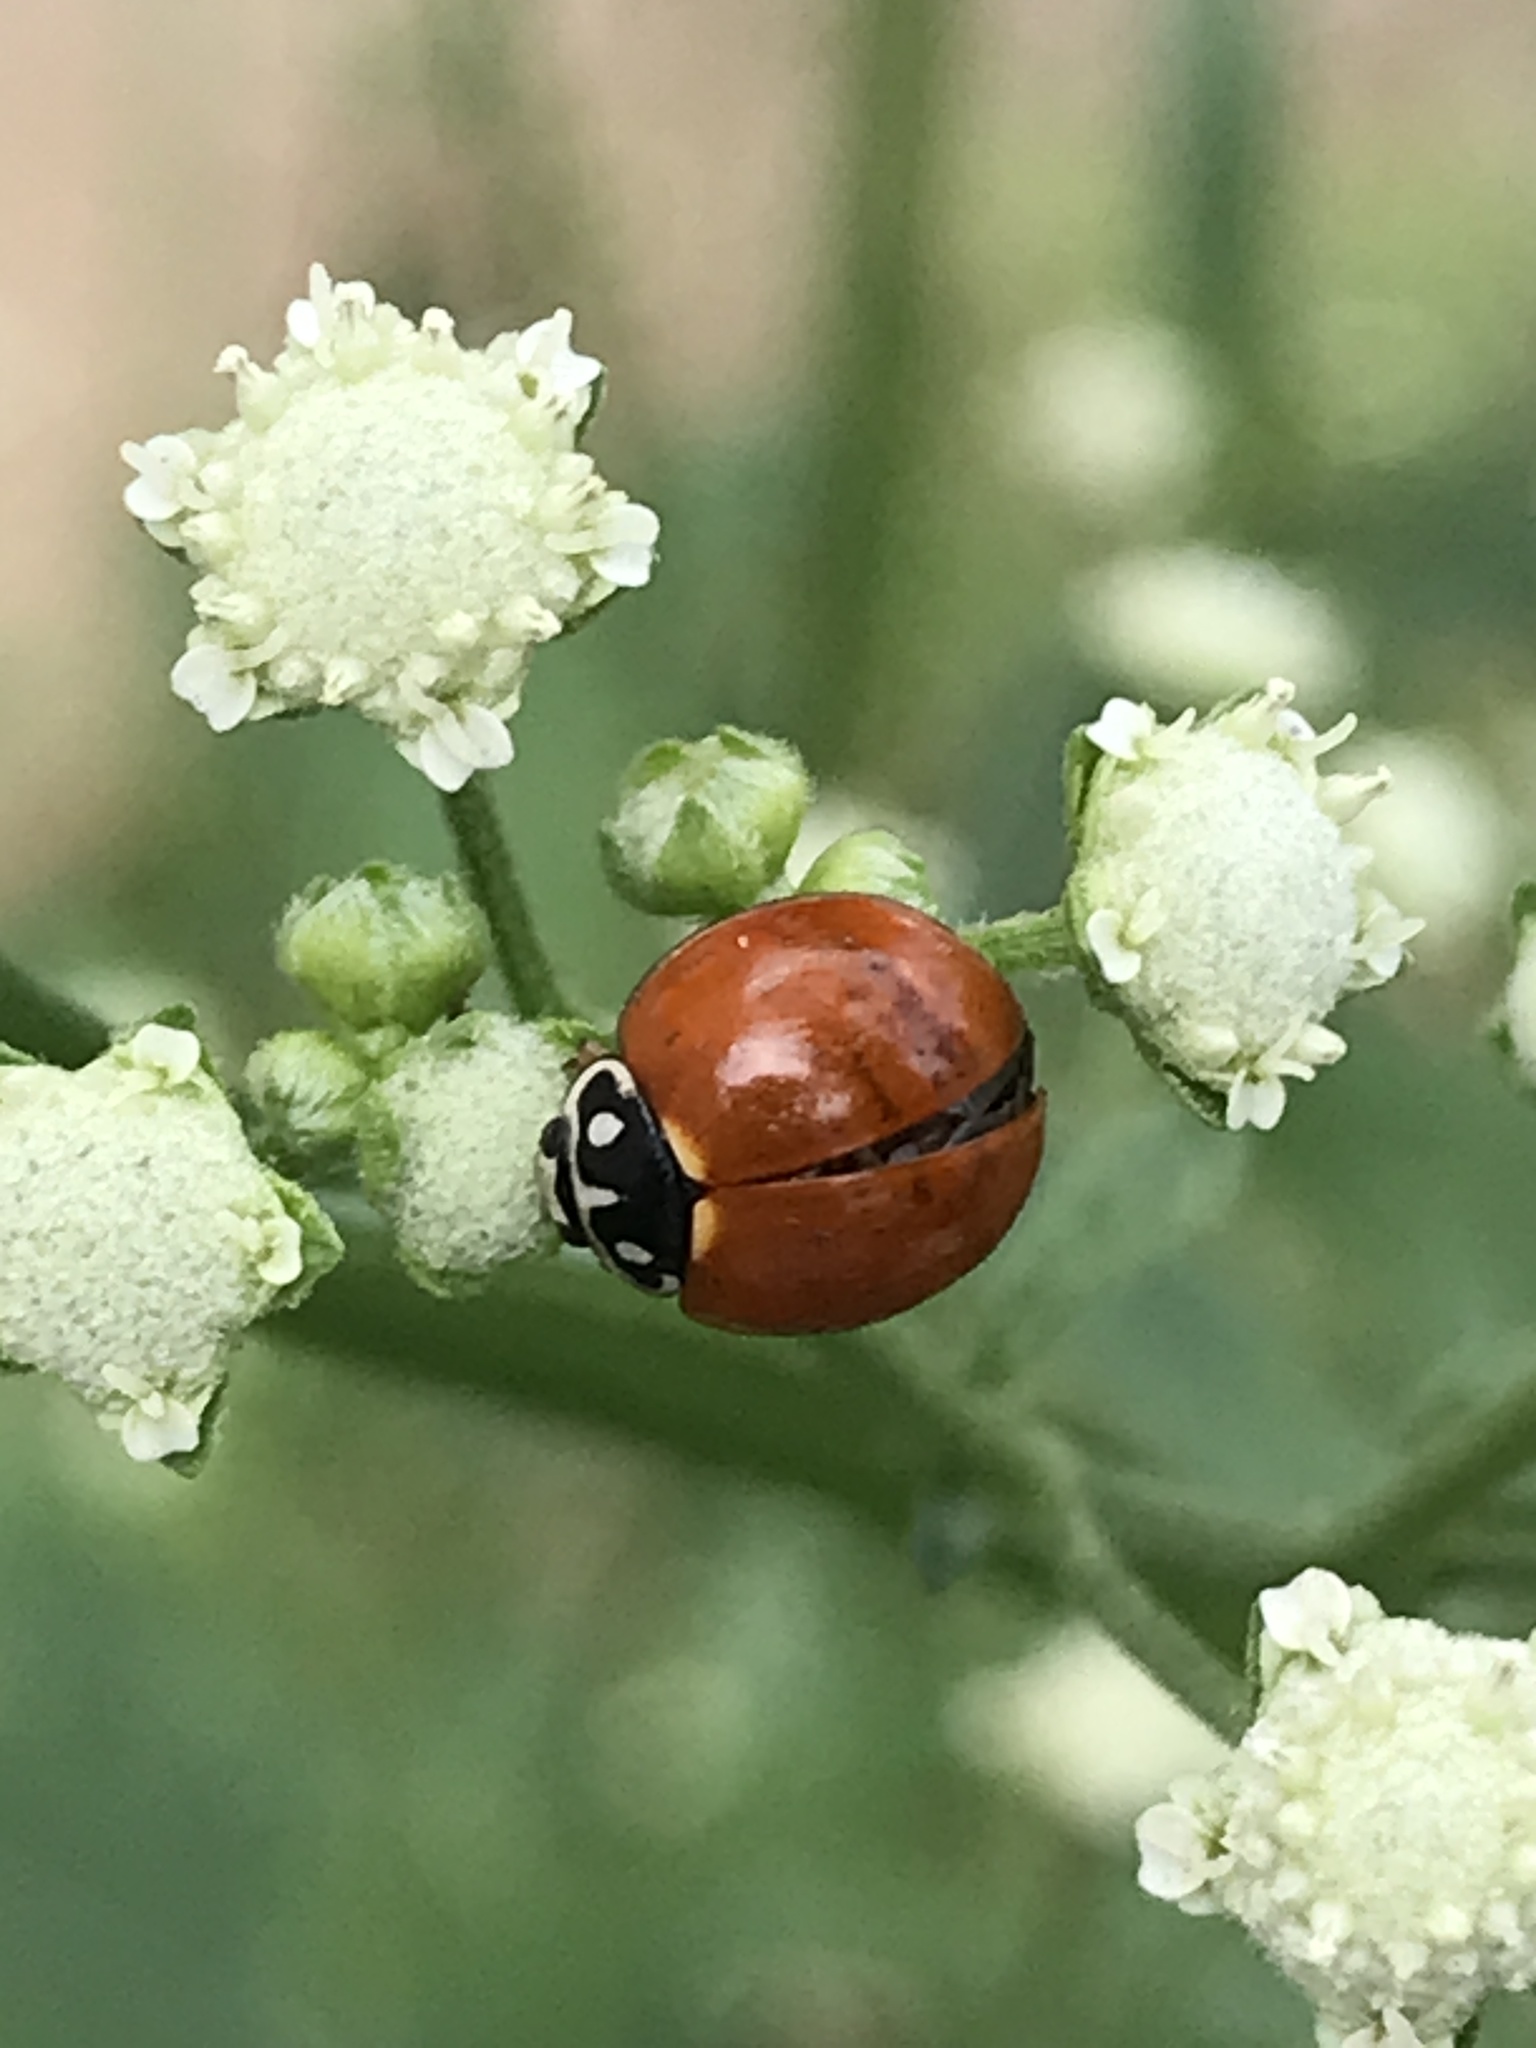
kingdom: Animalia
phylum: Arthropoda
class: Insecta
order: Coleoptera
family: Coccinellidae
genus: Cycloneda
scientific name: Cycloneda sanguinea
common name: Ladybird beetle
